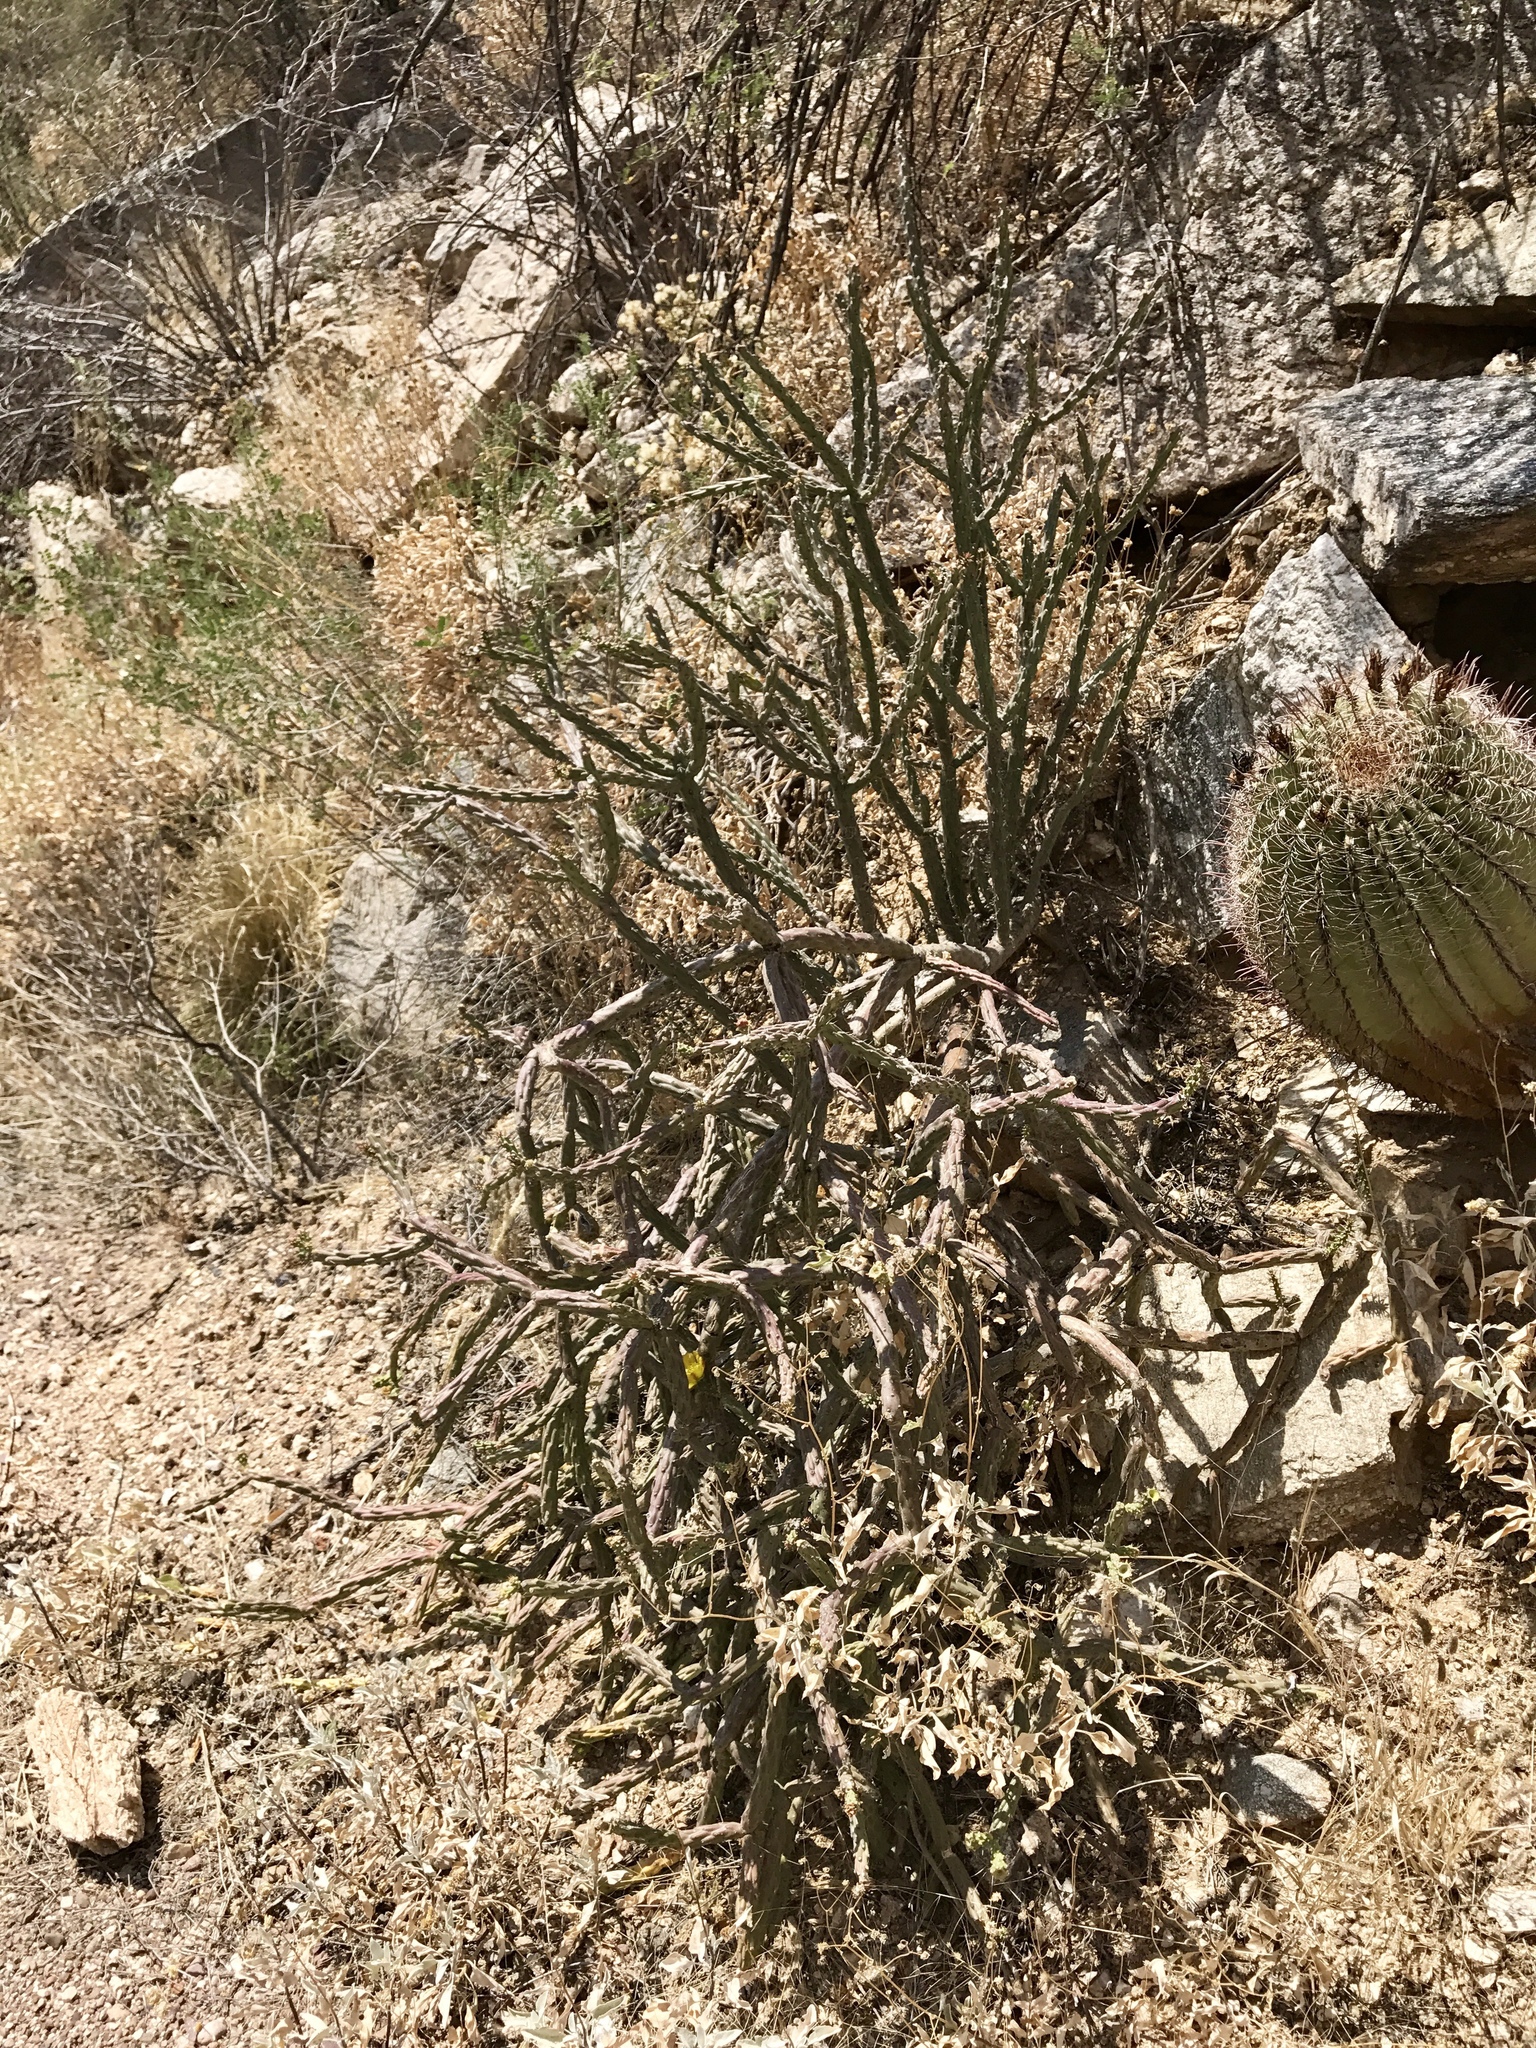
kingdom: Plantae
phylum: Tracheophyta
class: Magnoliopsida
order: Caryophyllales
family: Cactaceae
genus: Cylindropuntia
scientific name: Cylindropuntia thurberi
